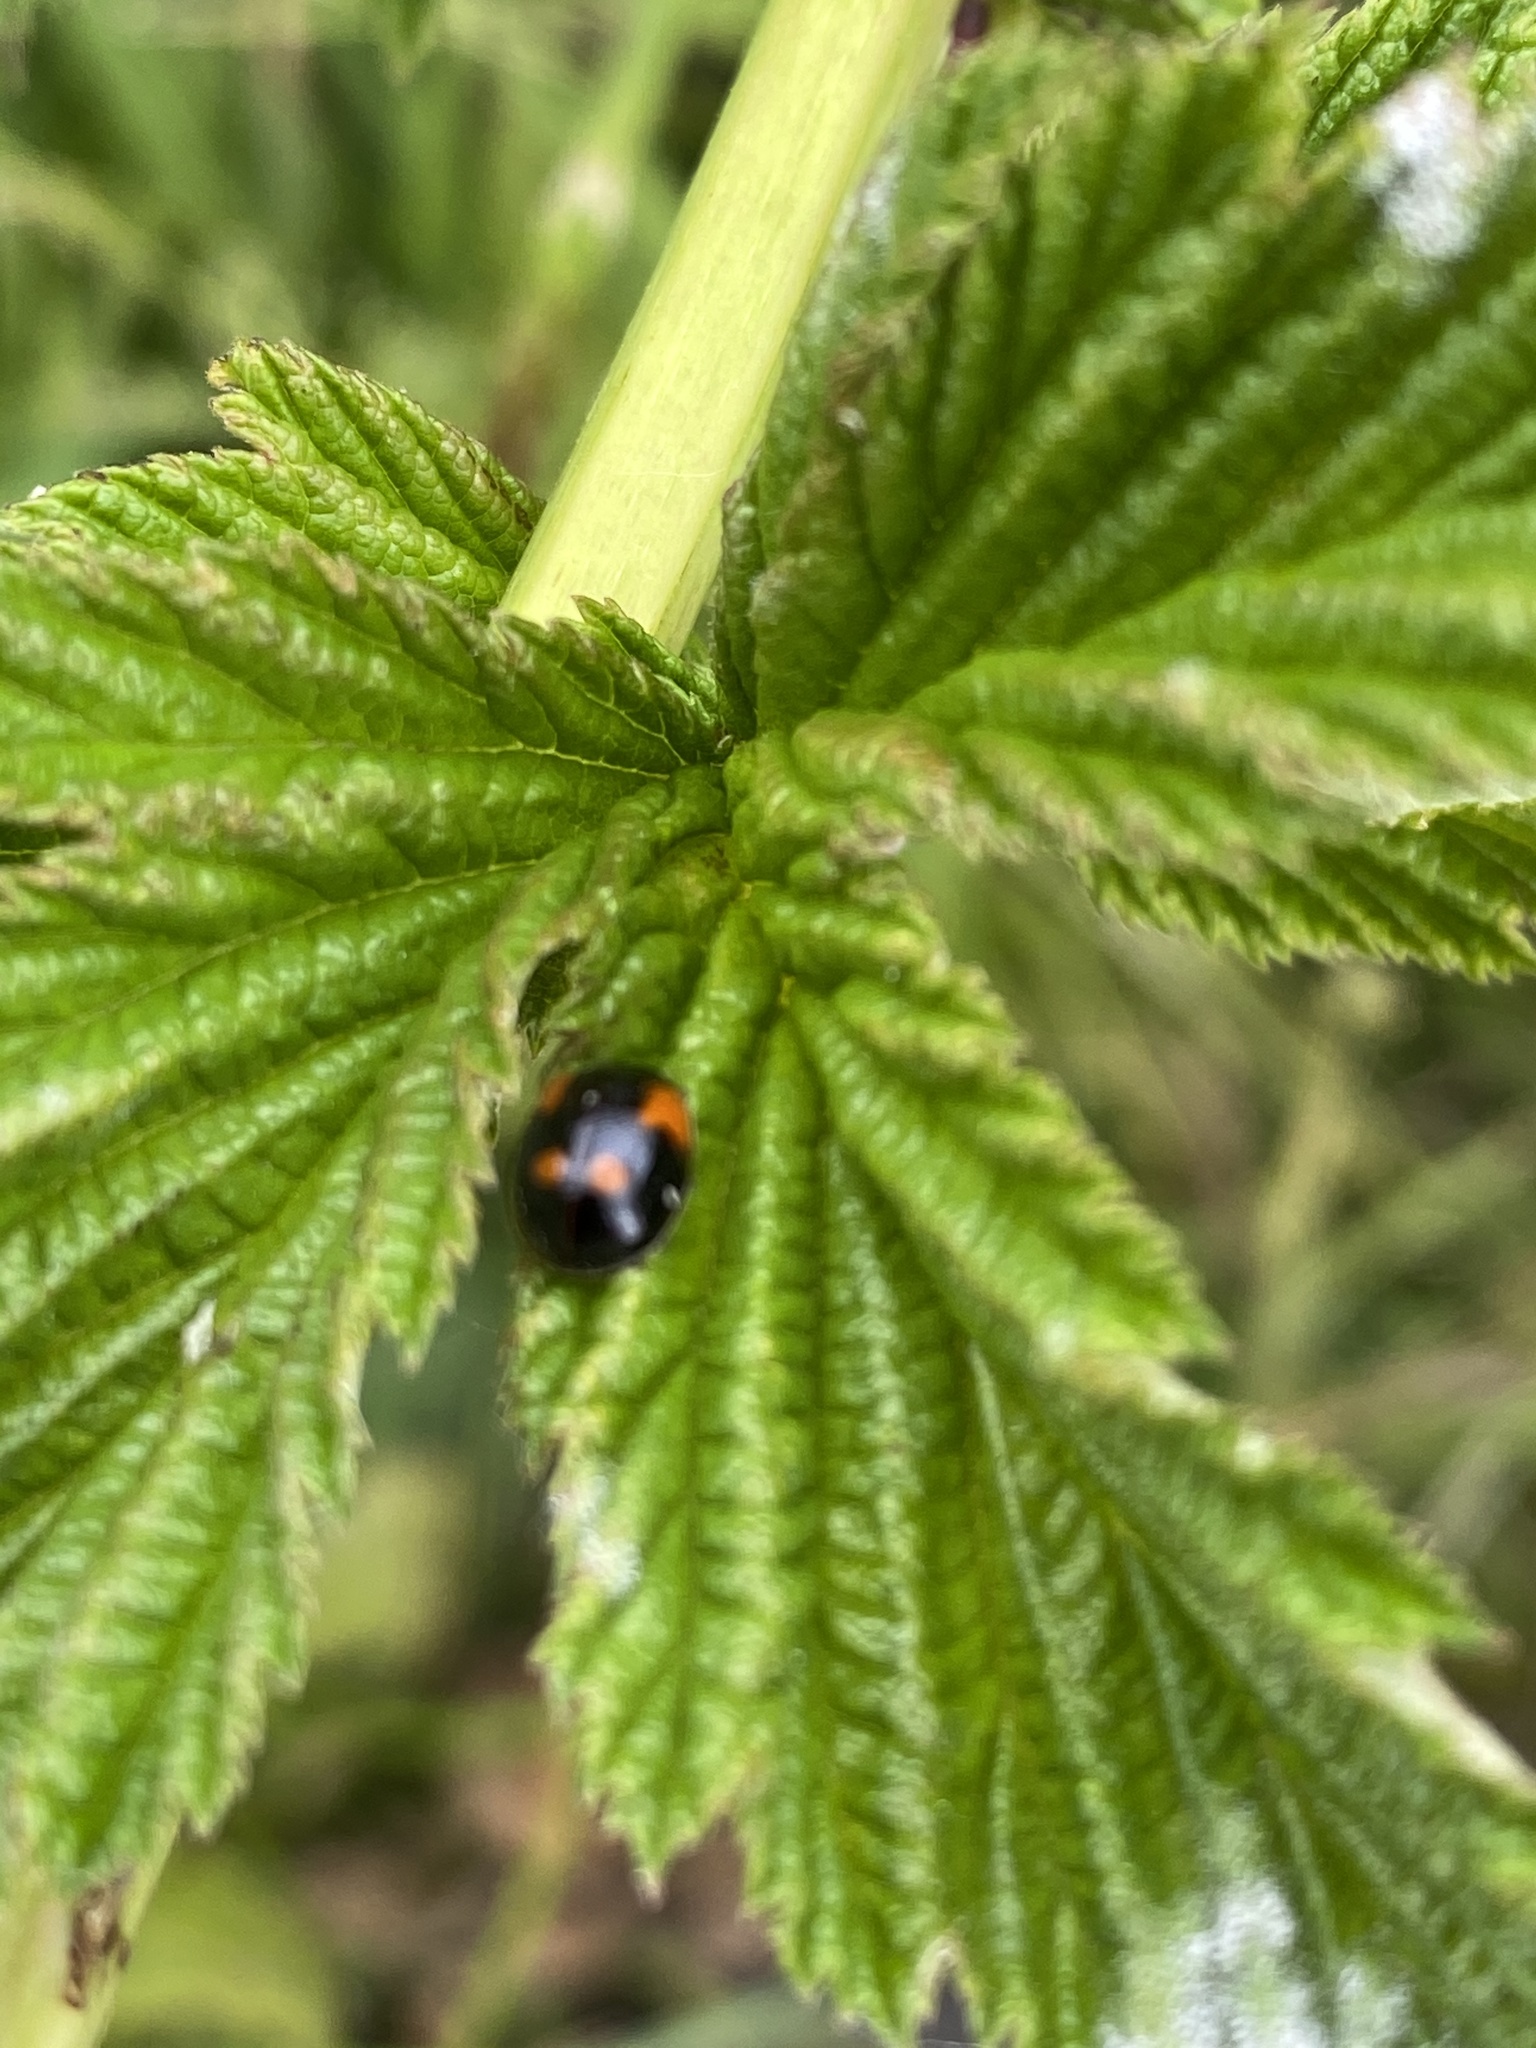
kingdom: Animalia
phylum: Arthropoda
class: Insecta
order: Coleoptera
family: Coccinellidae
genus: Adalia
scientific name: Adalia bipunctata
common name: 2-spot ladybird
